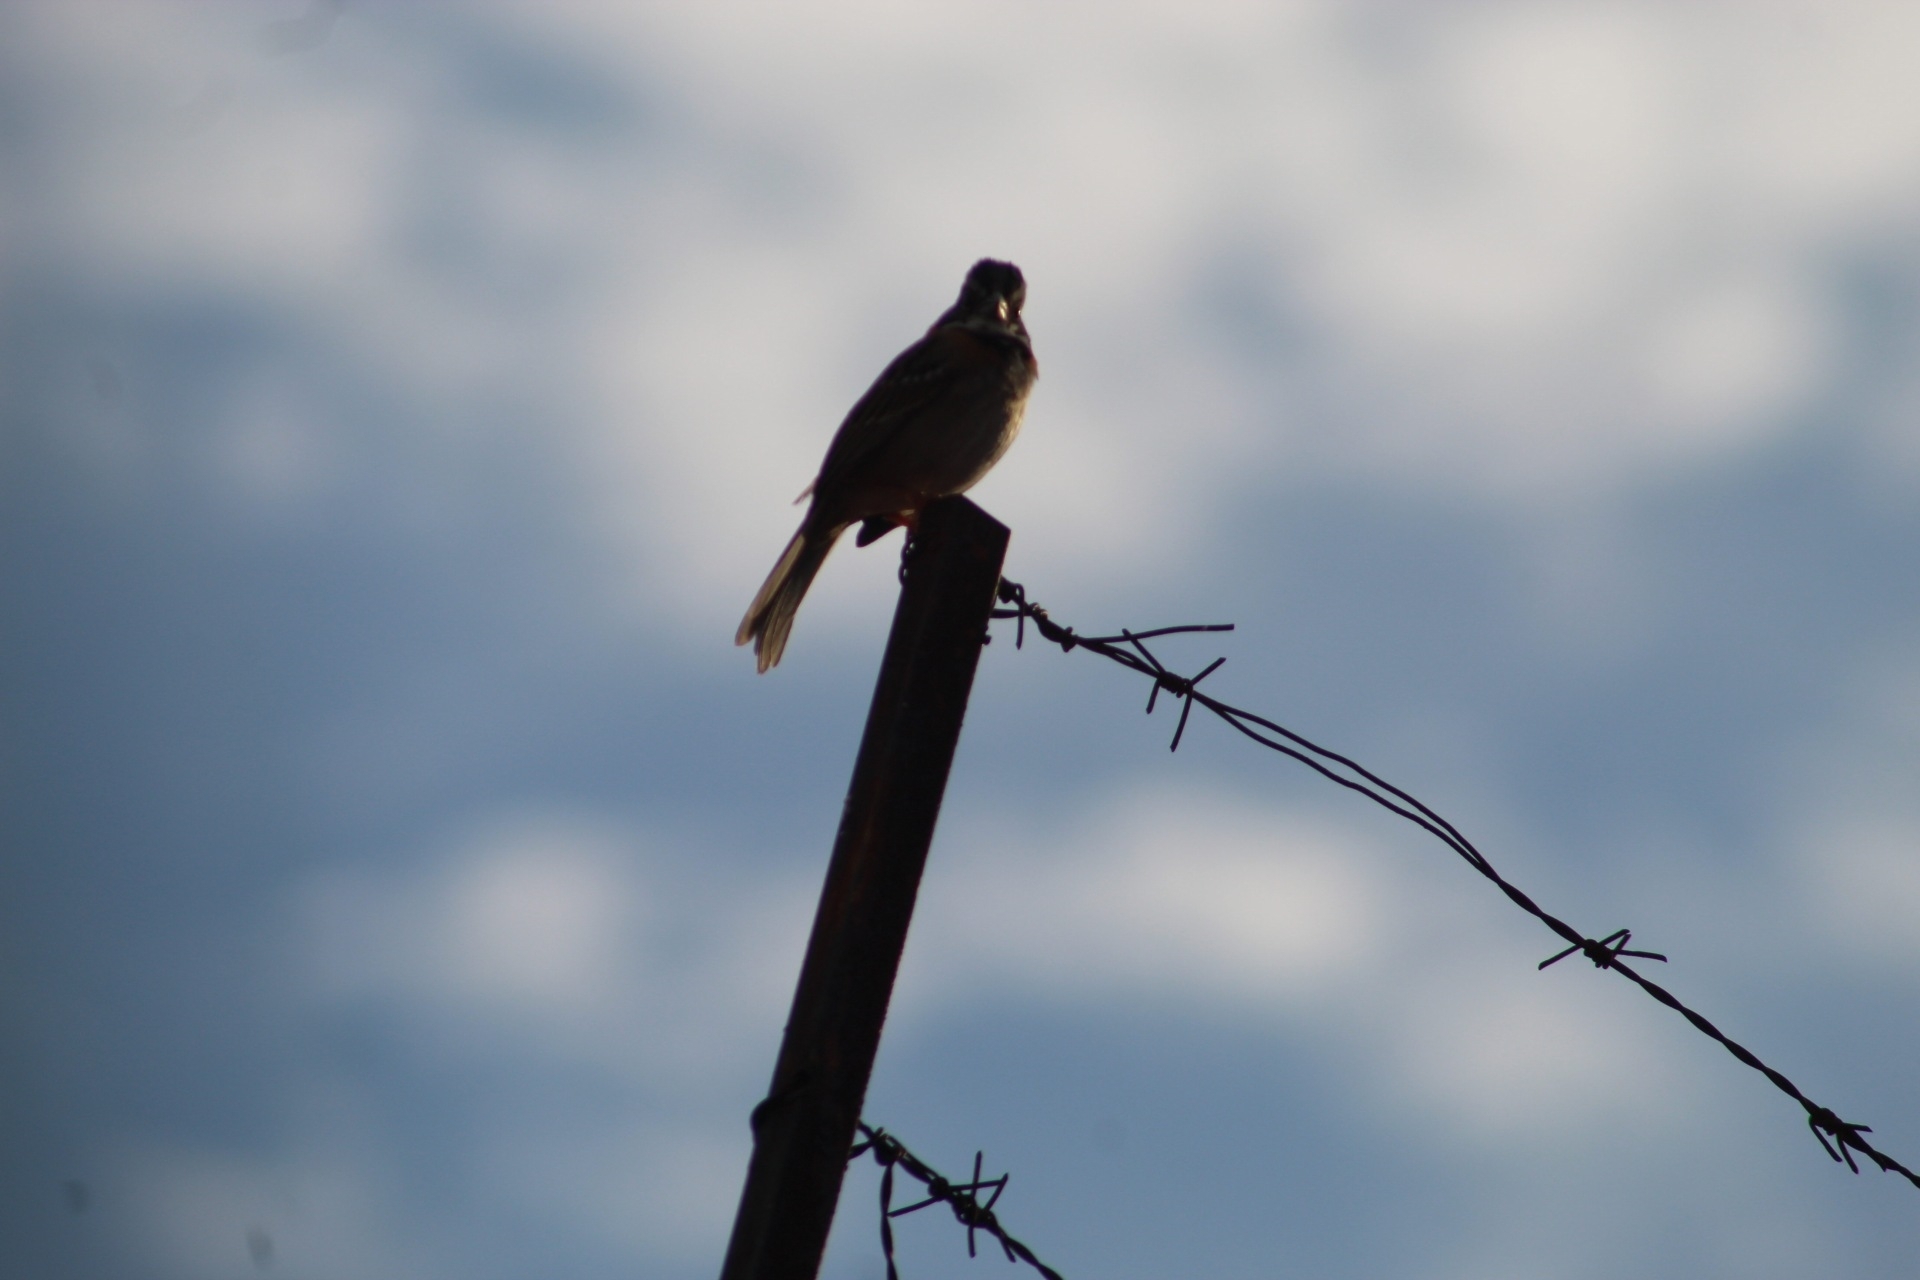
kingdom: Animalia
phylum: Chordata
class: Aves
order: Passeriformes
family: Passerellidae
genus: Zonotrichia
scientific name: Zonotrichia capensis
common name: Rufous-collared sparrow
